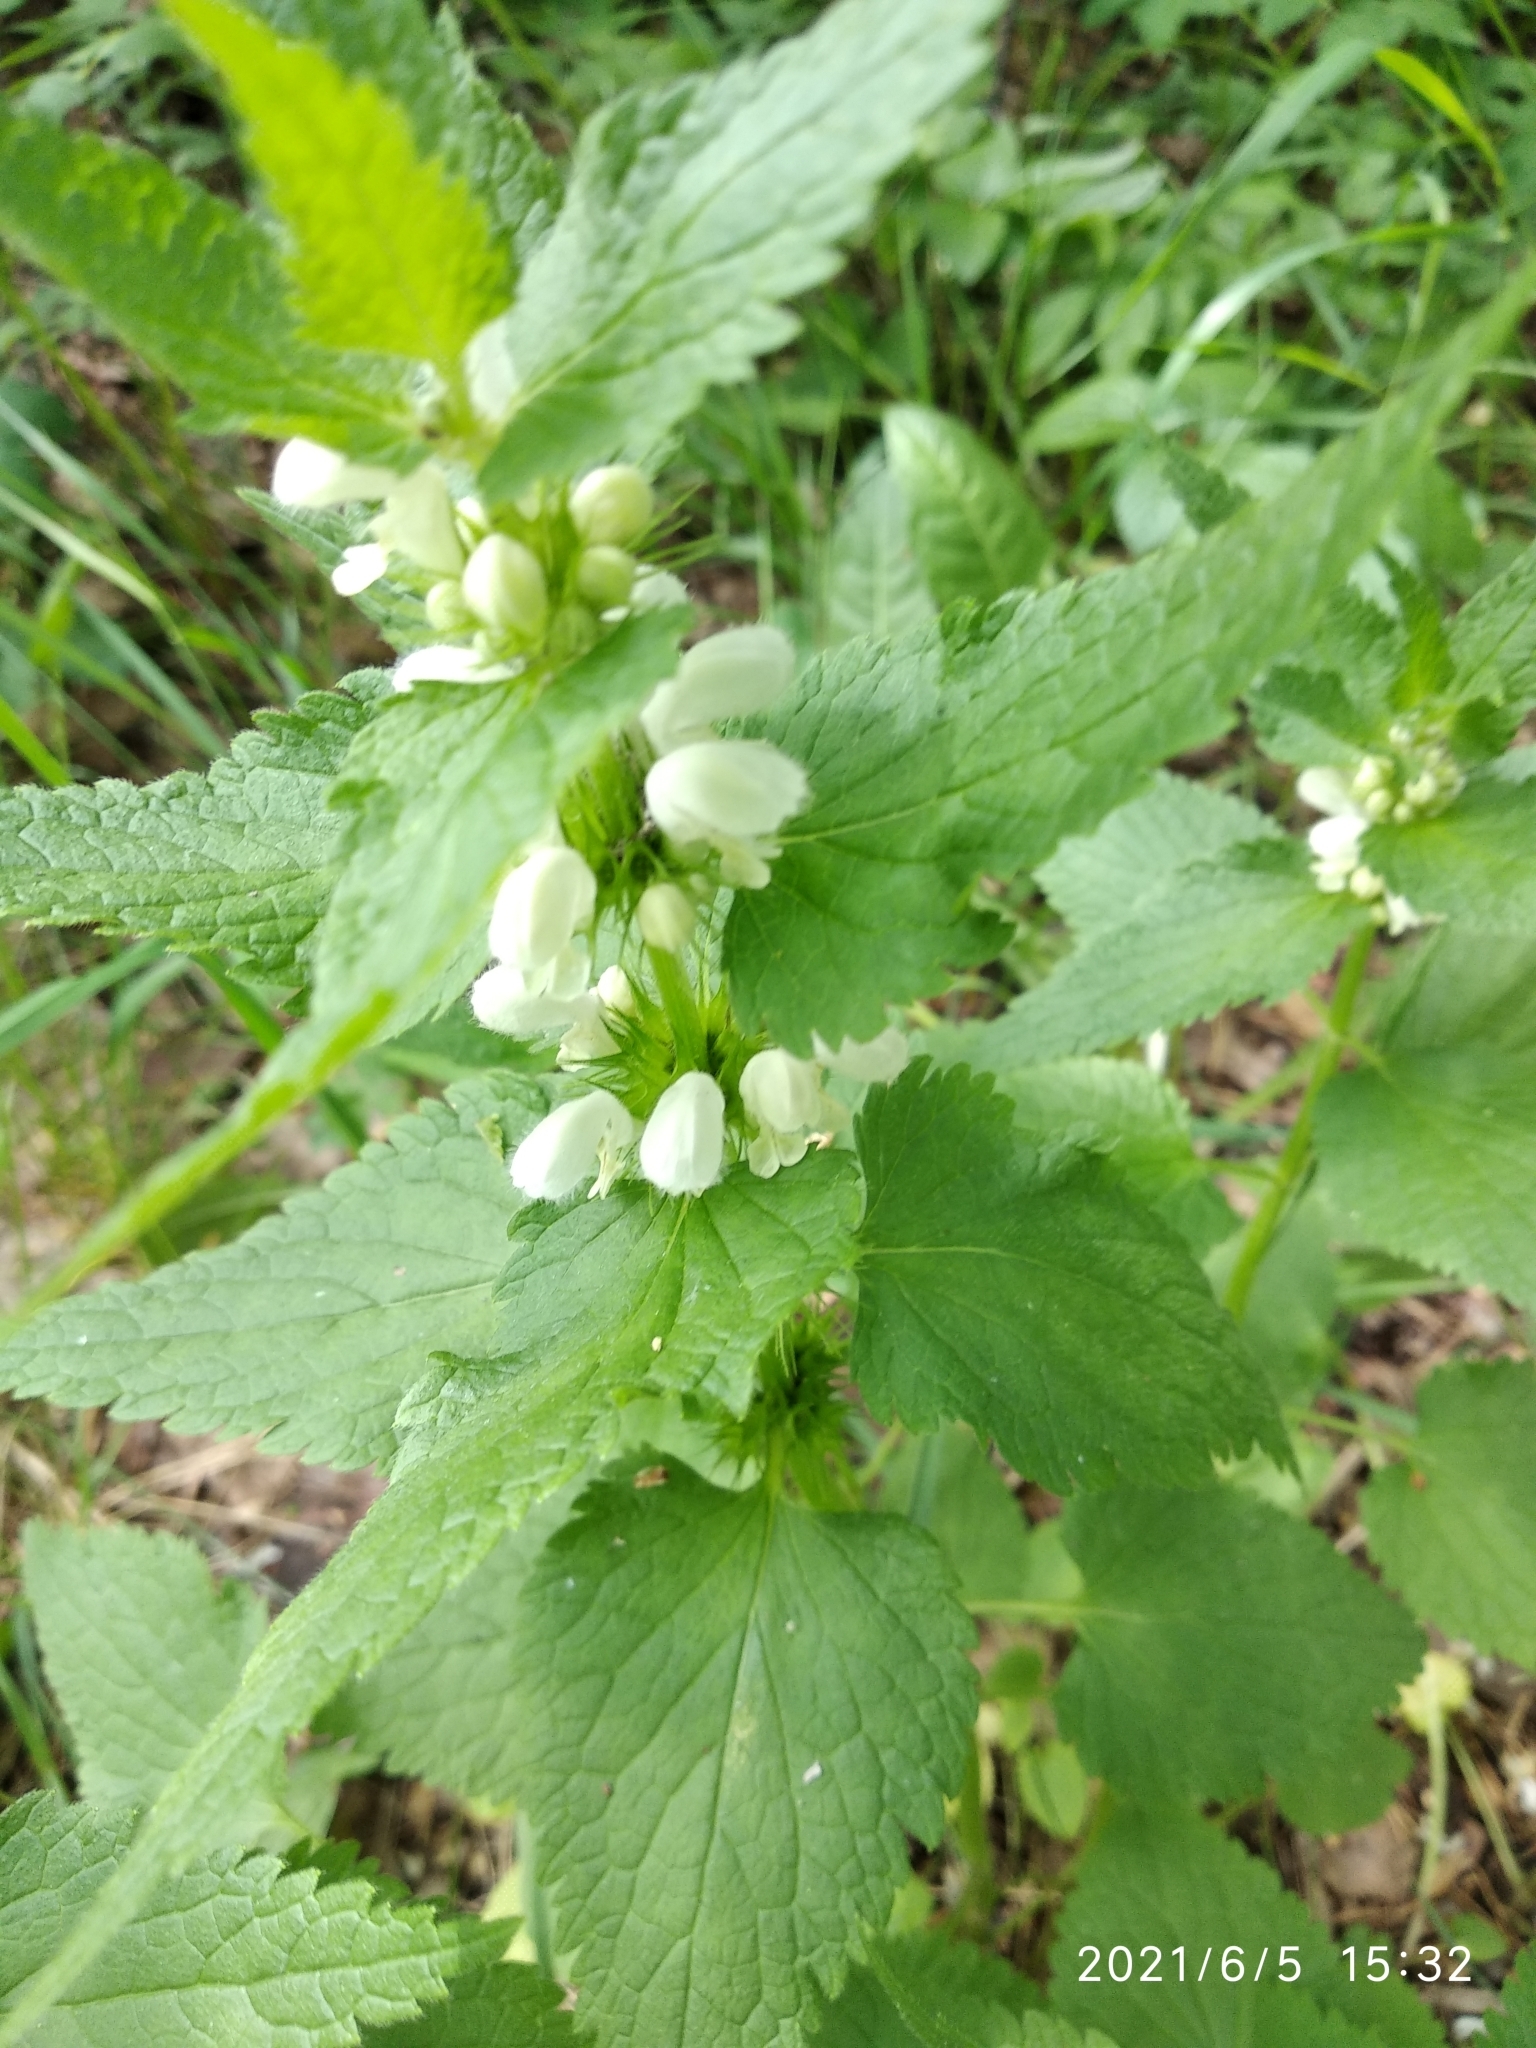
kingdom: Plantae
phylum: Tracheophyta
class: Magnoliopsida
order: Lamiales
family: Lamiaceae
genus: Lamium
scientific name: Lamium album
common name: White dead-nettle
